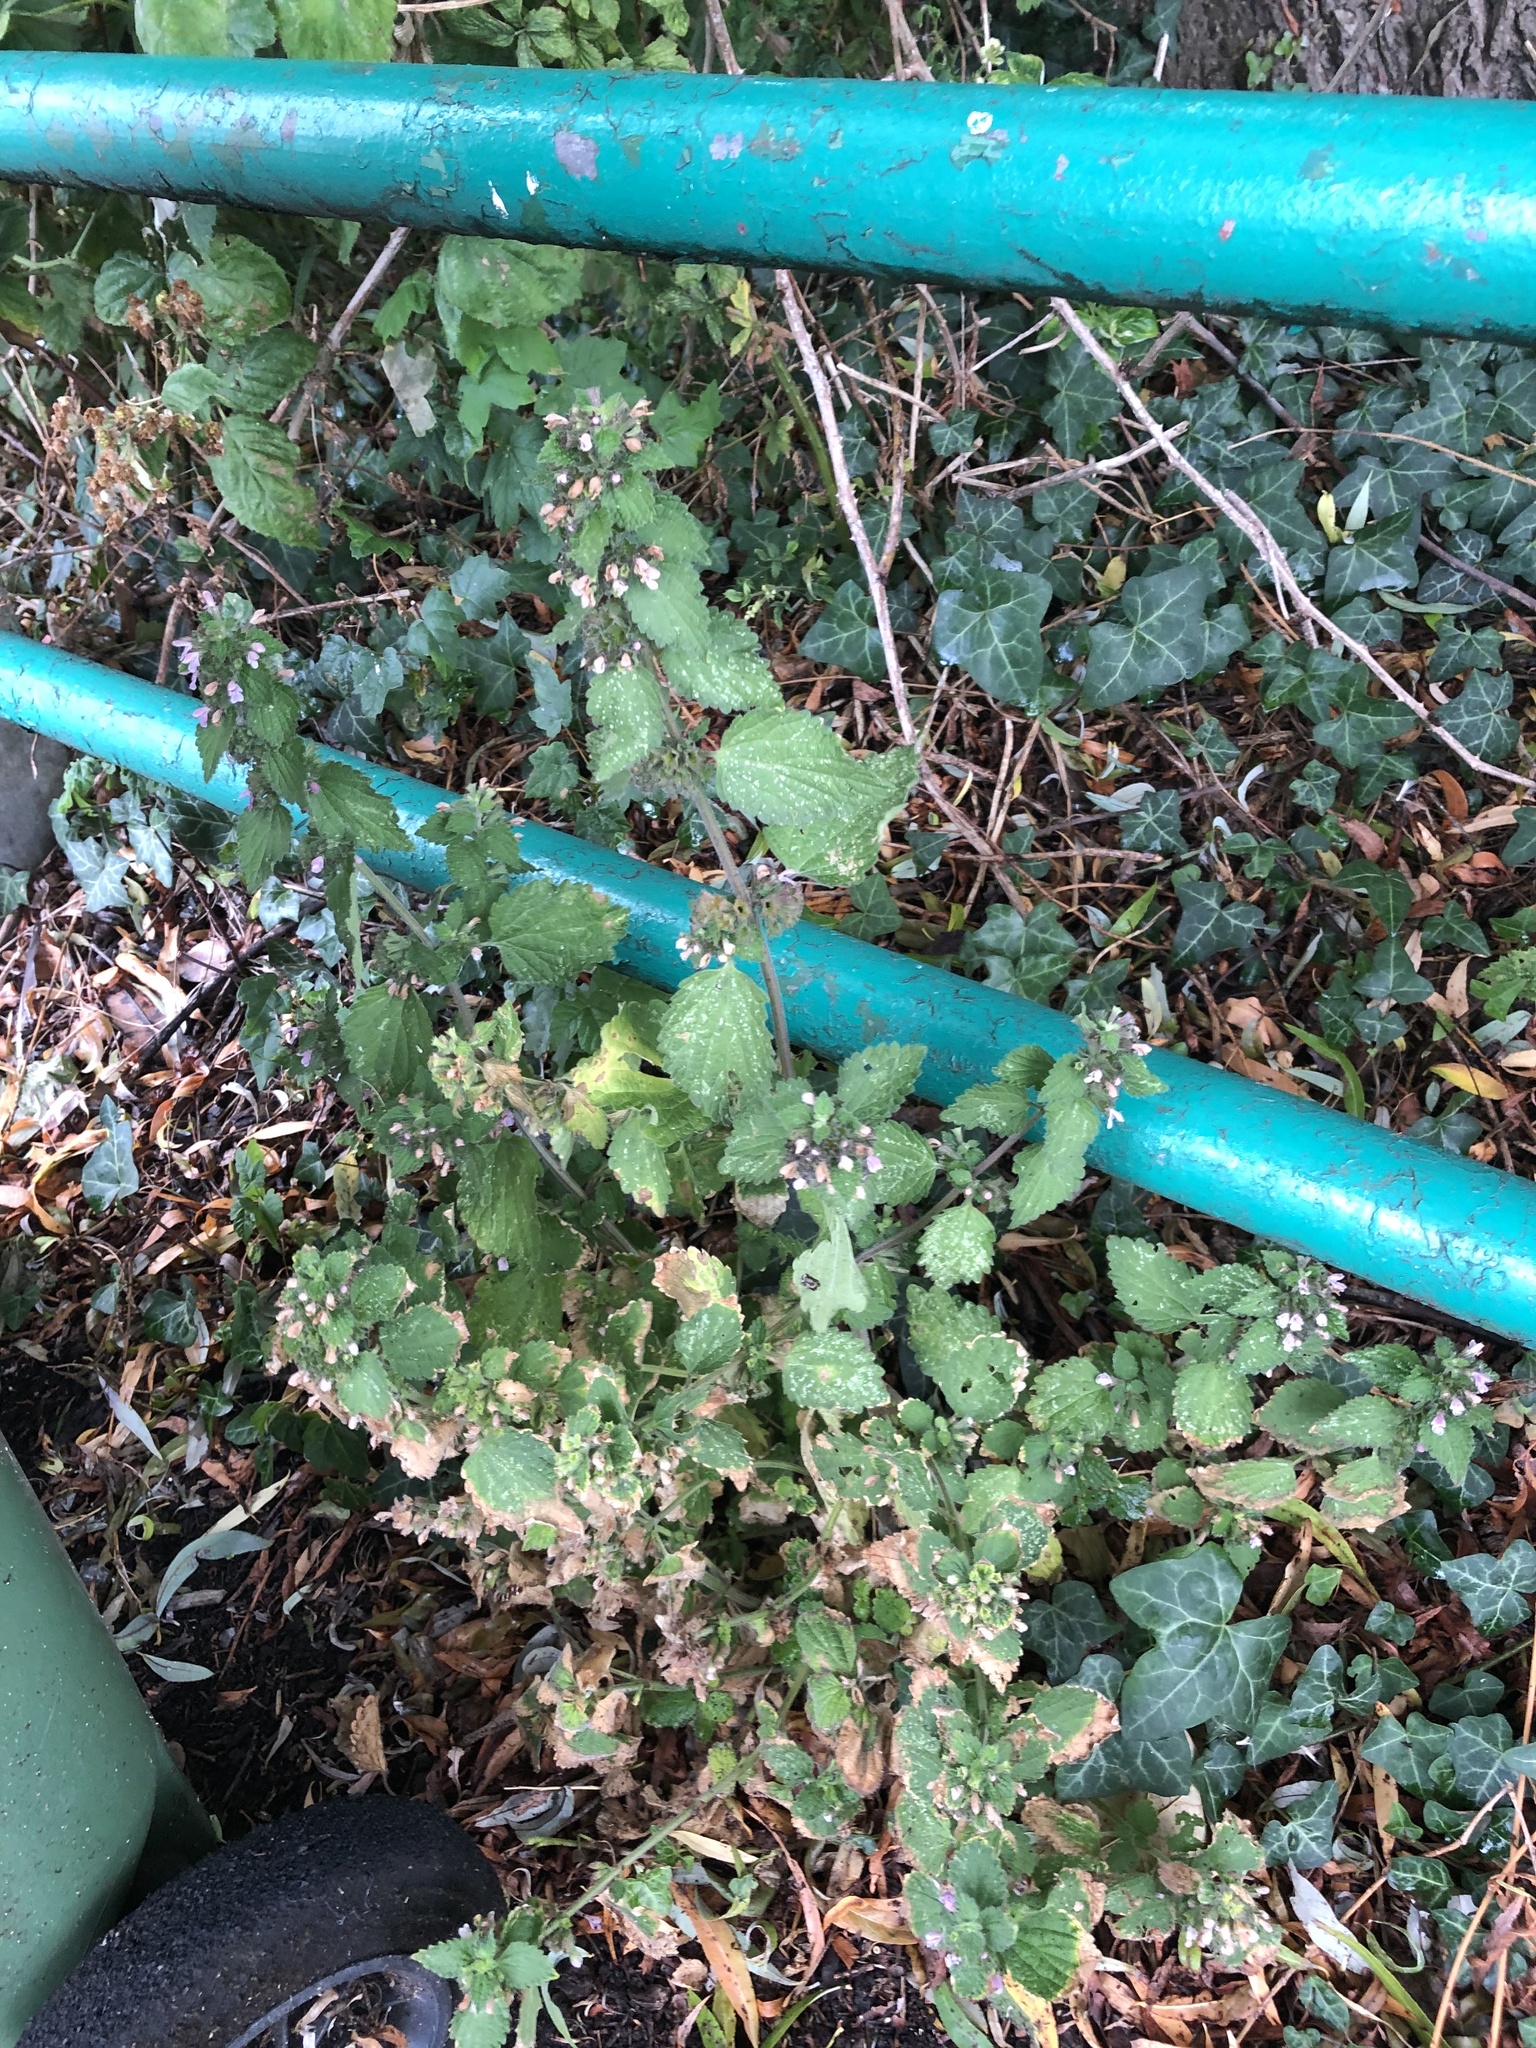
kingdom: Plantae
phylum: Tracheophyta
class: Magnoliopsida
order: Lamiales
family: Lamiaceae
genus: Ballota
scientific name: Ballota nigra
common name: Black horehound
